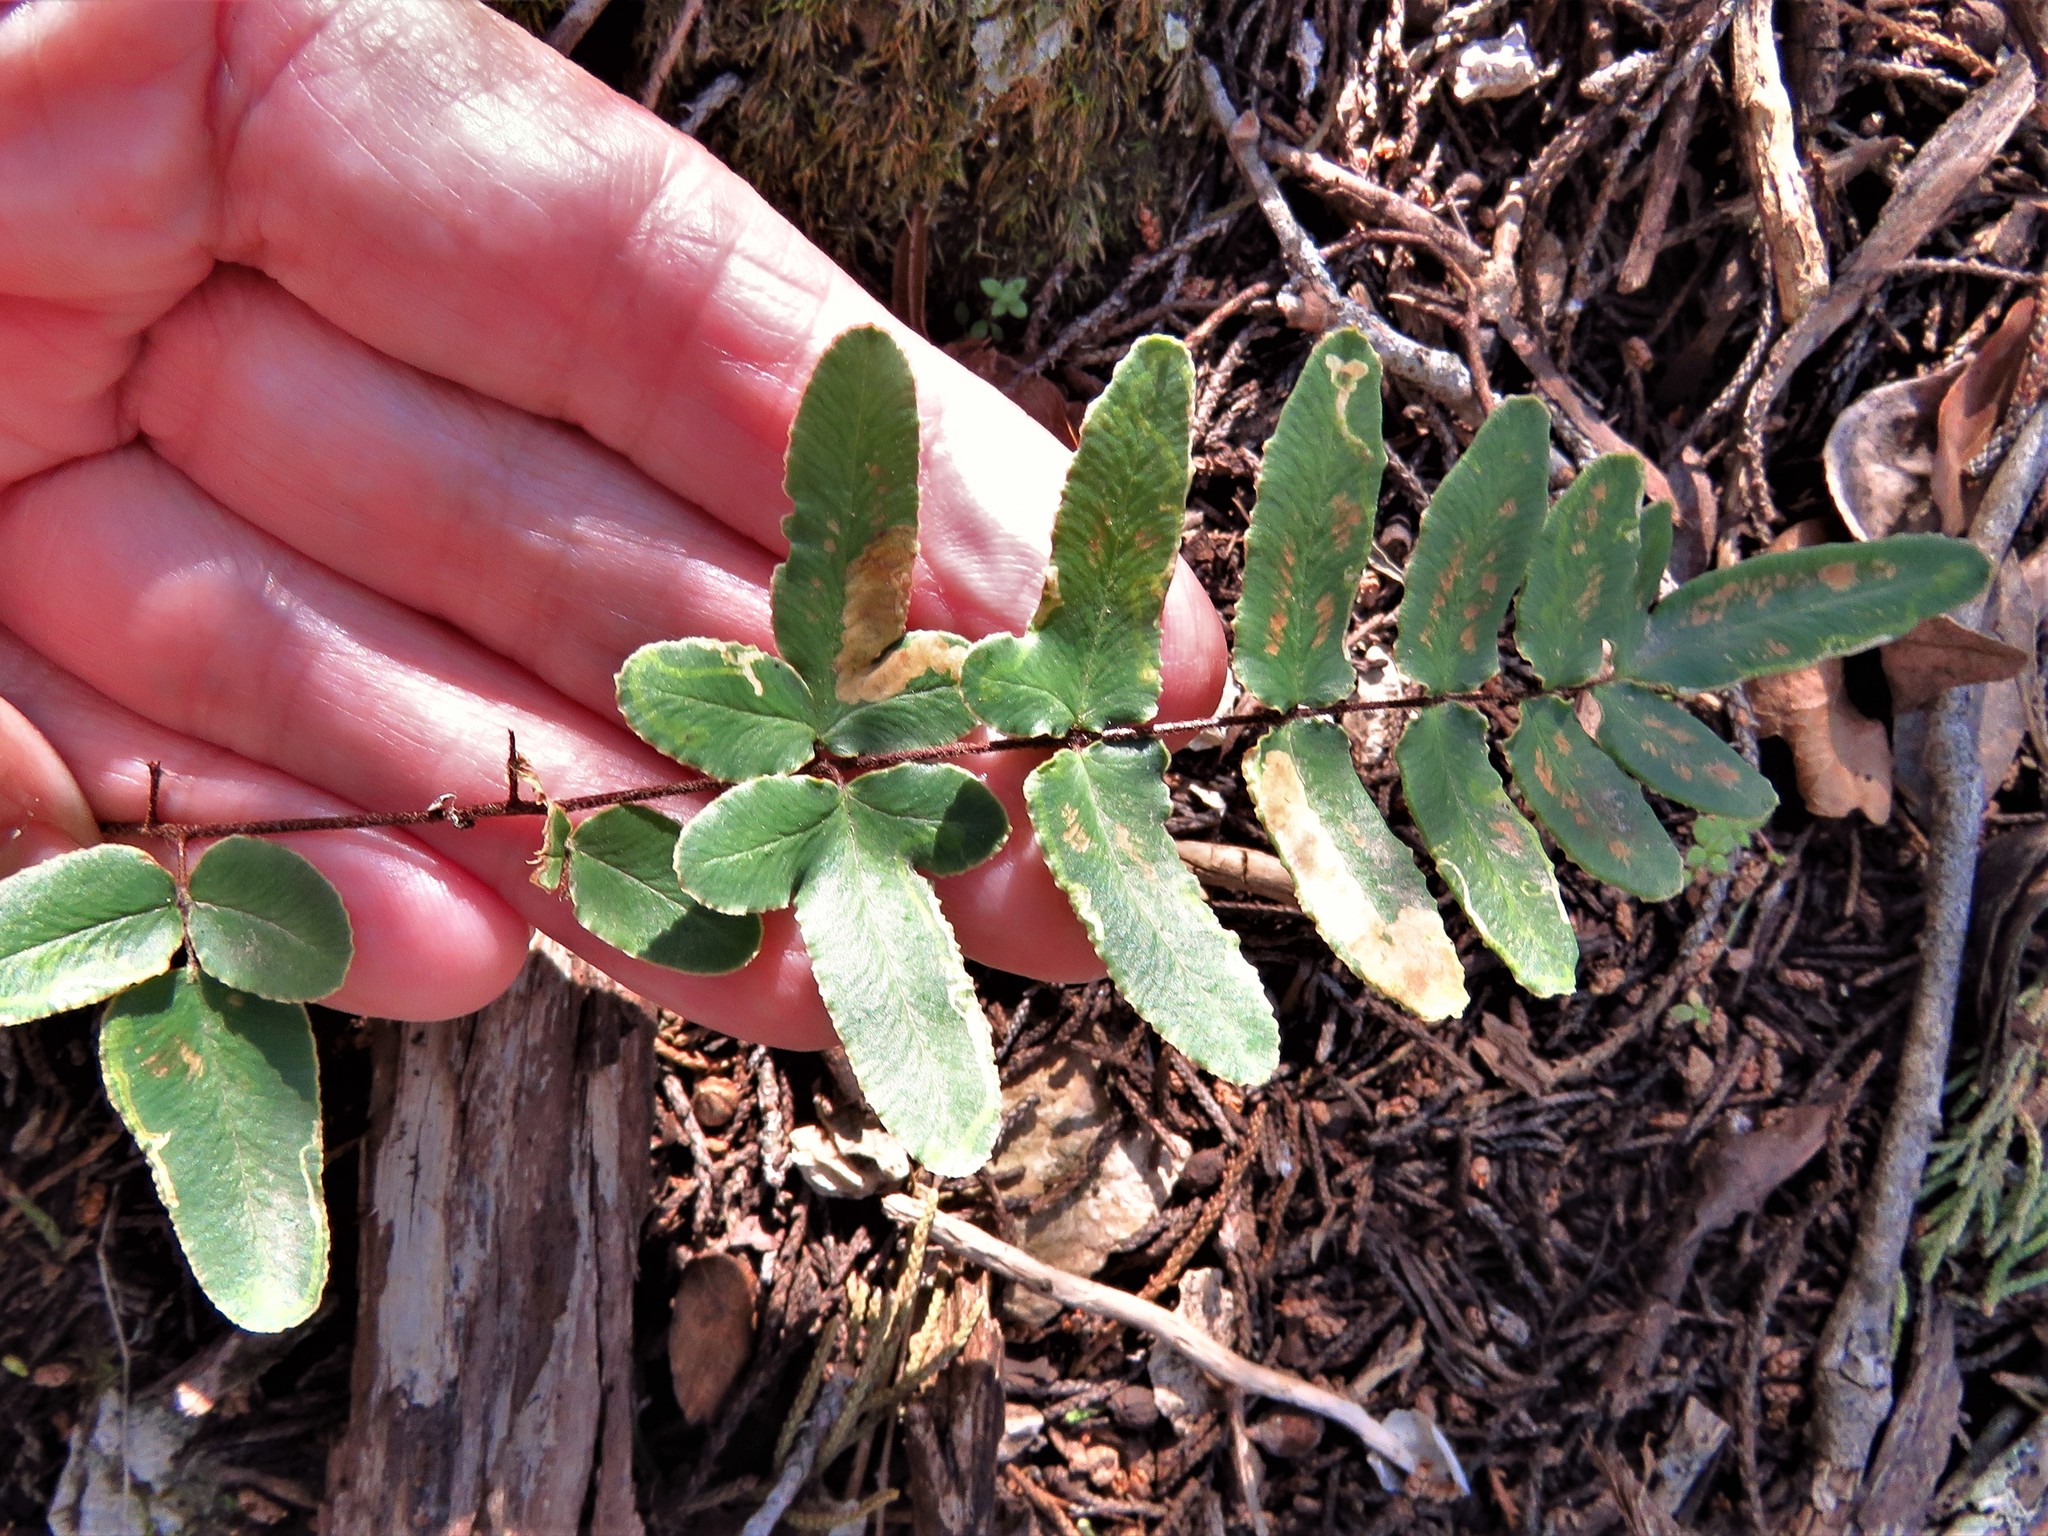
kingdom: Plantae
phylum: Tracheophyta
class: Polypodiopsida
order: Polypodiales
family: Pteridaceae
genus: Pellaea
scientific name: Pellaea atropurpurea
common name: Hairy cliffbrake
